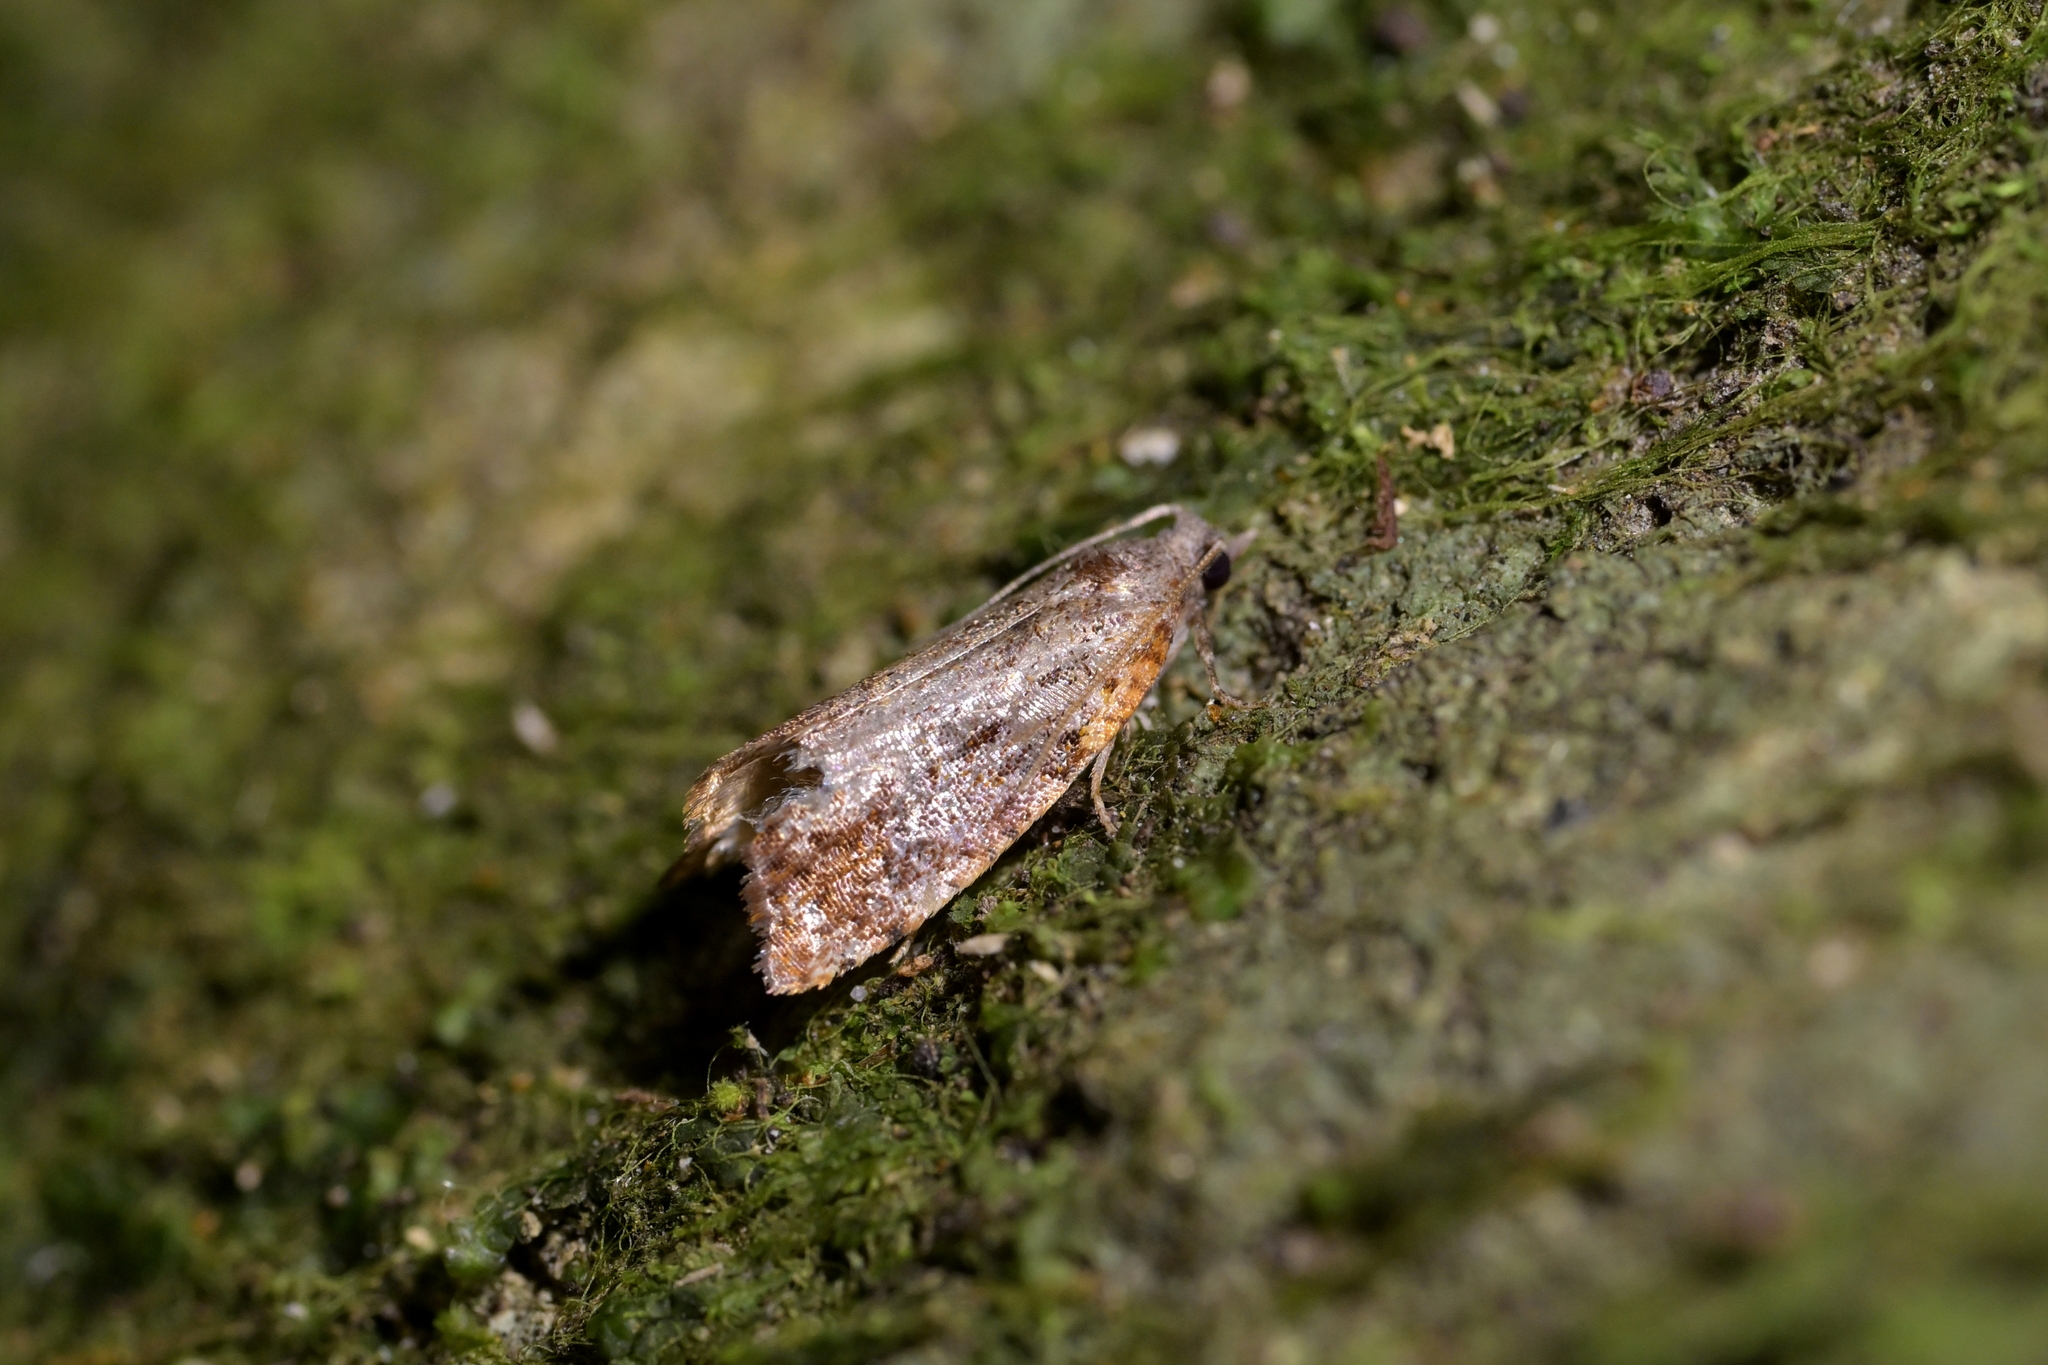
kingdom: Animalia
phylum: Arthropoda
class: Insecta
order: Lepidoptera
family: Tortricidae
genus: Pyrgotis
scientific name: Pyrgotis plagiatana
